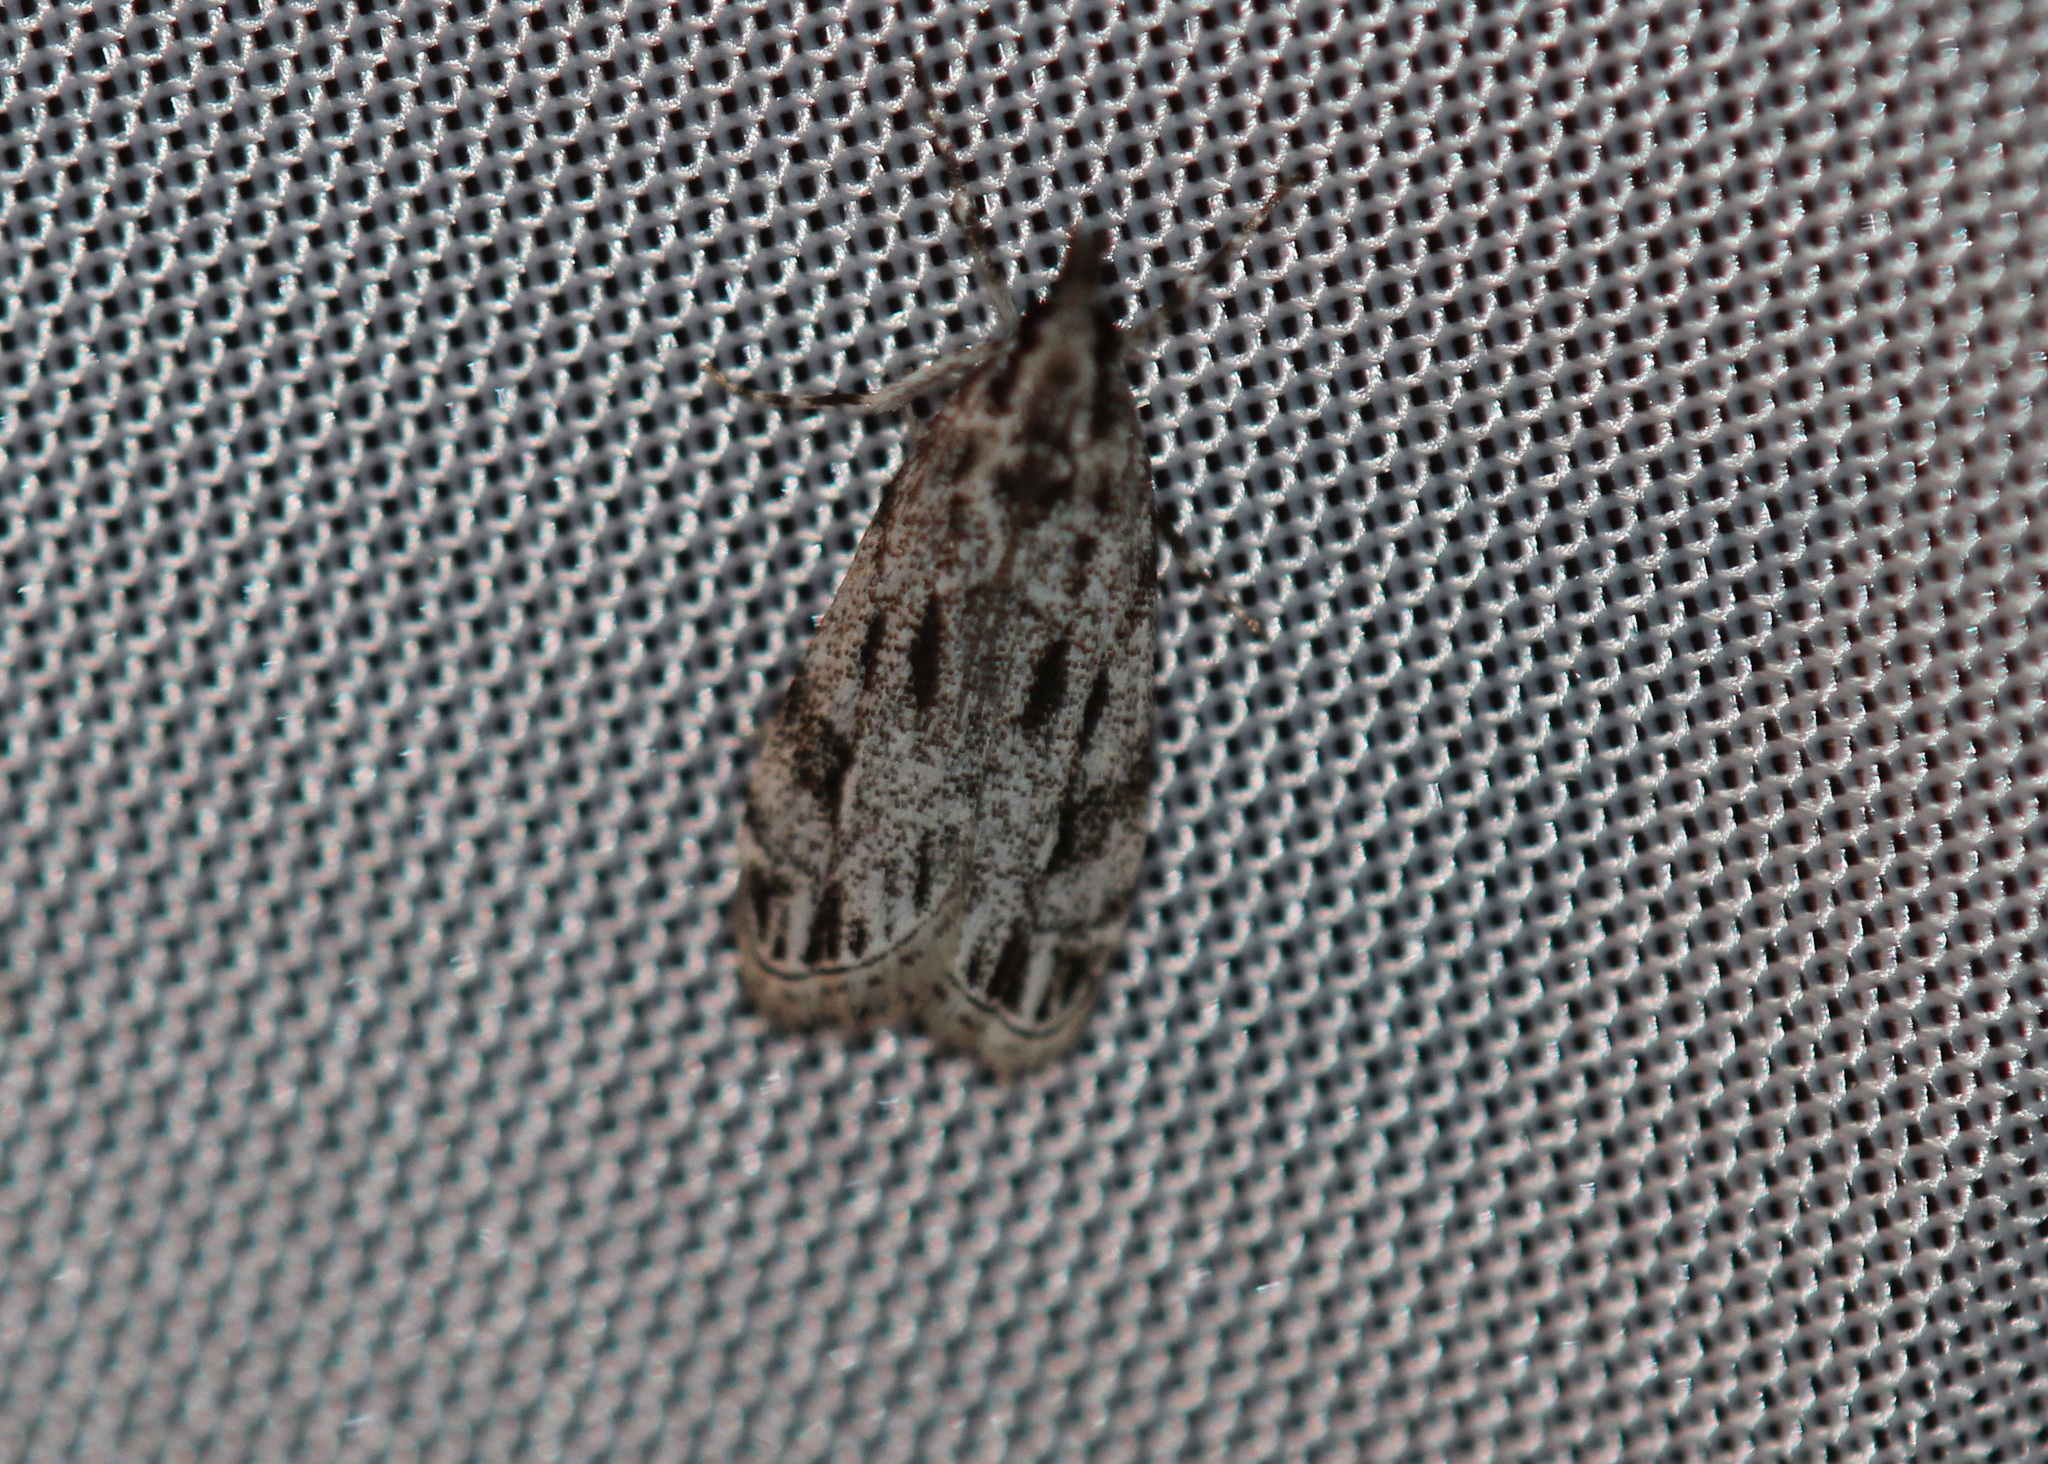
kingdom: Animalia
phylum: Arthropoda
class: Insecta
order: Lepidoptera
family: Crambidae
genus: Eudonia
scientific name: Eudonia strigalis
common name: Striped eudonia moth
